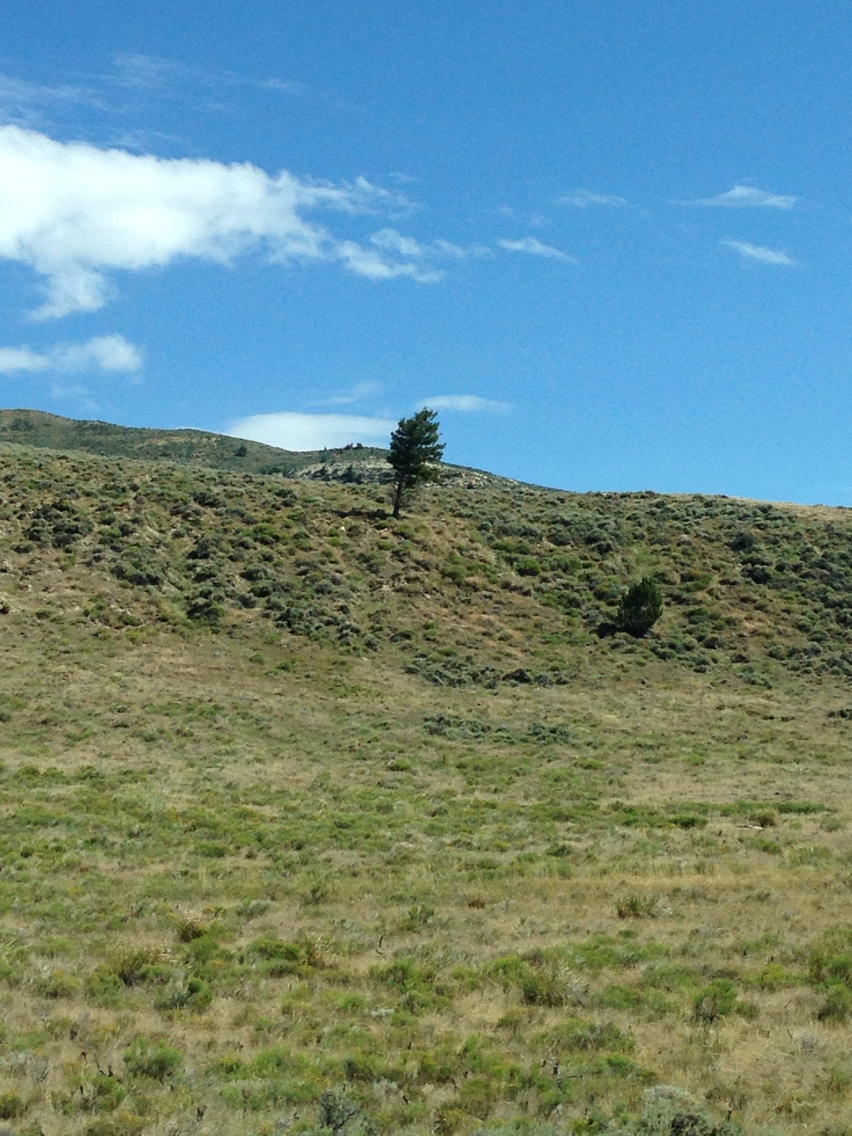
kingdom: Plantae
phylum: Tracheophyta
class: Pinopsida
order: Pinales
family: Pinaceae
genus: Pseudotsuga
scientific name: Pseudotsuga menziesii
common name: Douglas fir
